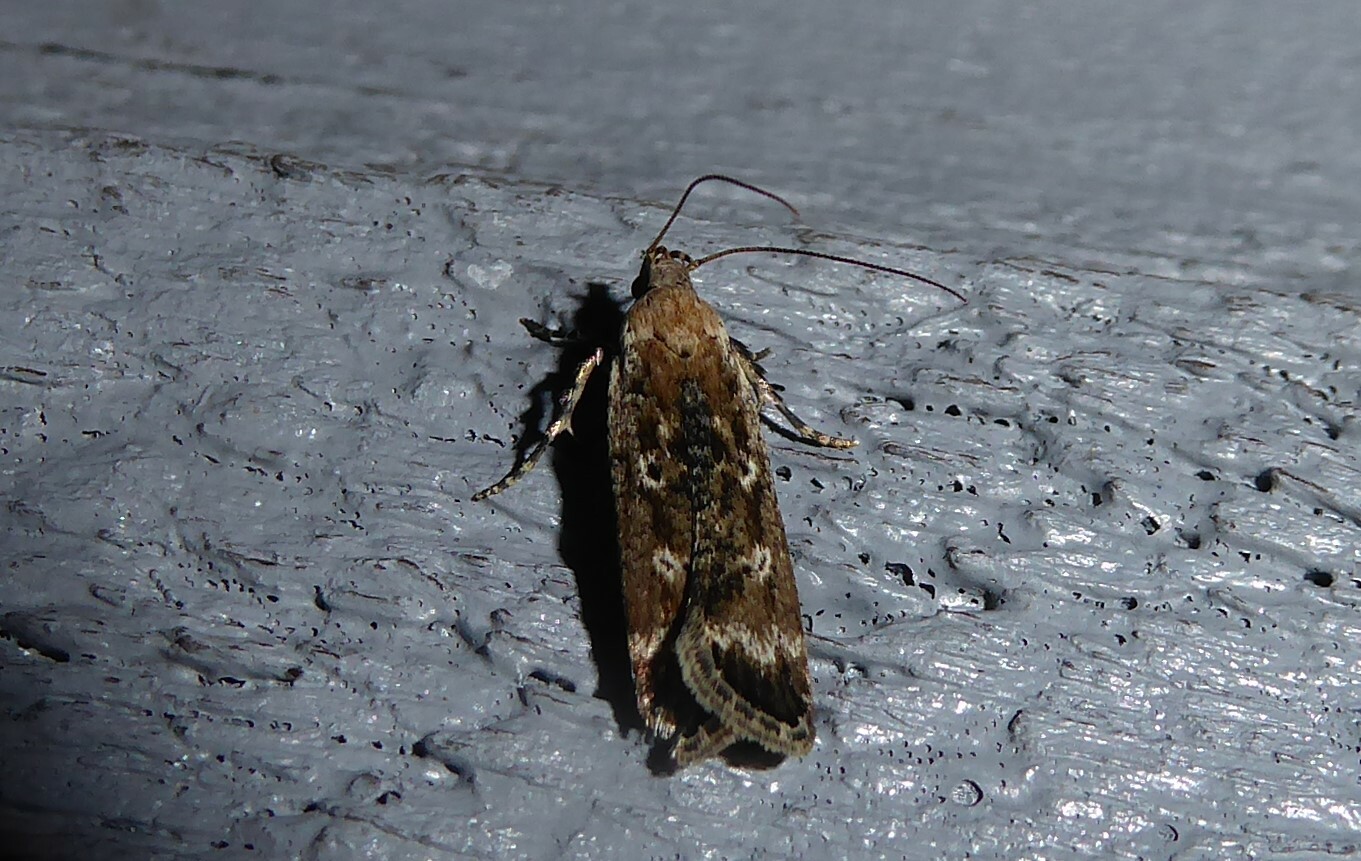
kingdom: Animalia
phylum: Arthropoda
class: Insecta
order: Lepidoptera
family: Gelechiidae
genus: Anisoplaca
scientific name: Anisoplaca achyrota
